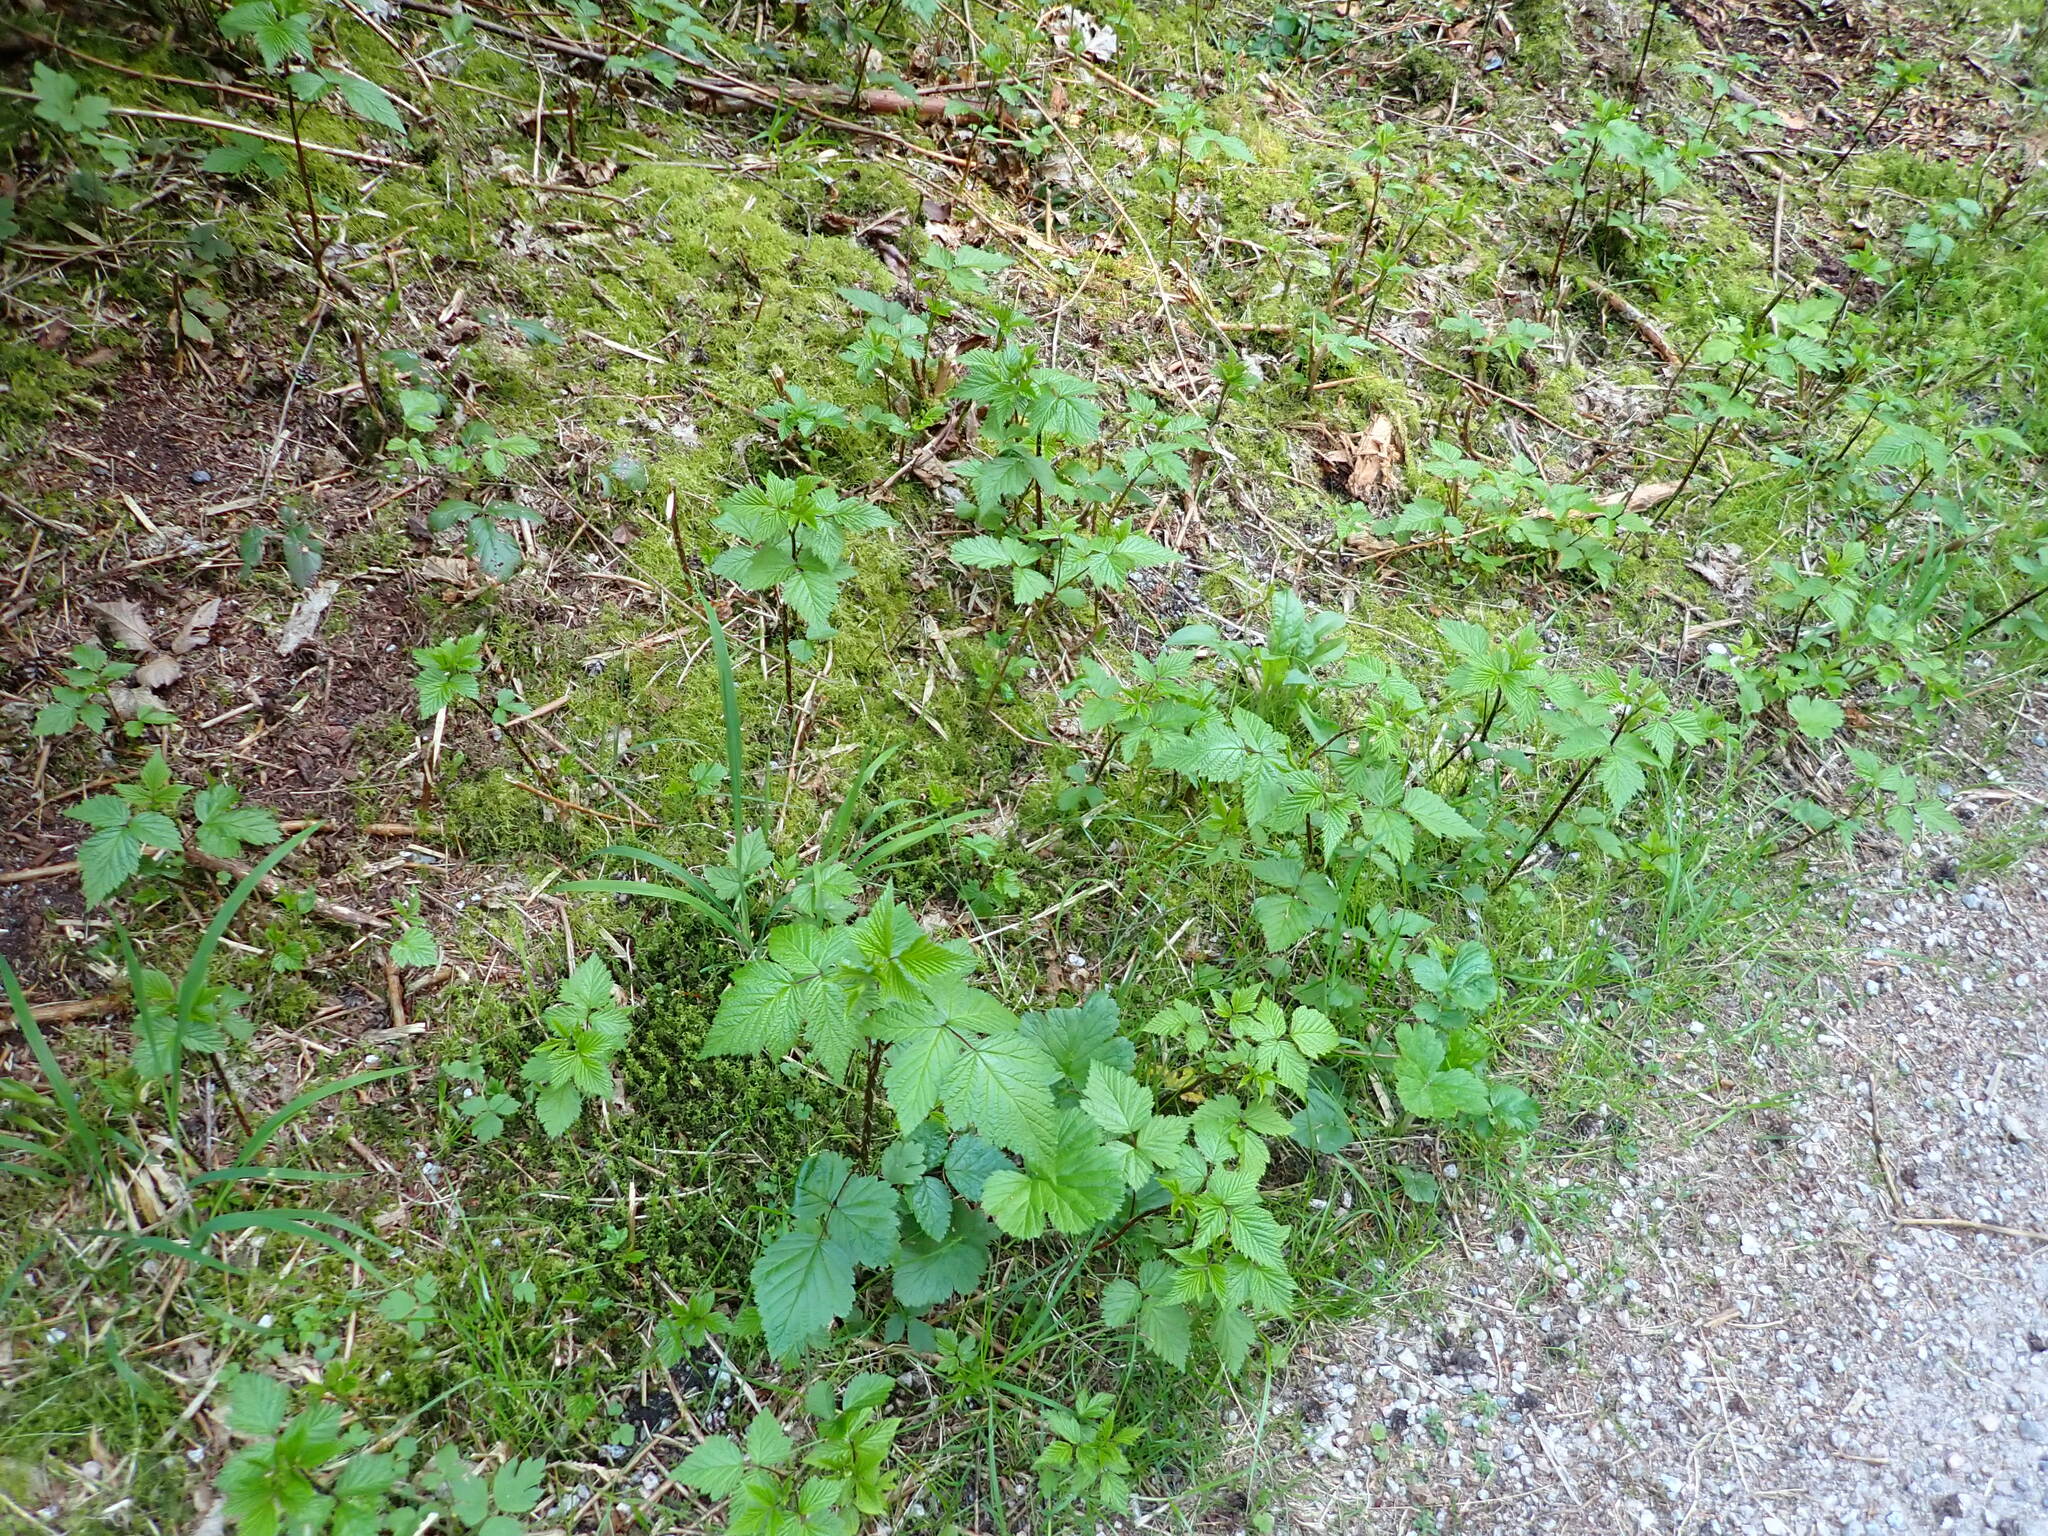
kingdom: Plantae
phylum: Tracheophyta
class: Magnoliopsida
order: Rosales
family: Rosaceae
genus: Rubus
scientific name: Rubus spectabilis
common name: Salmonberry
